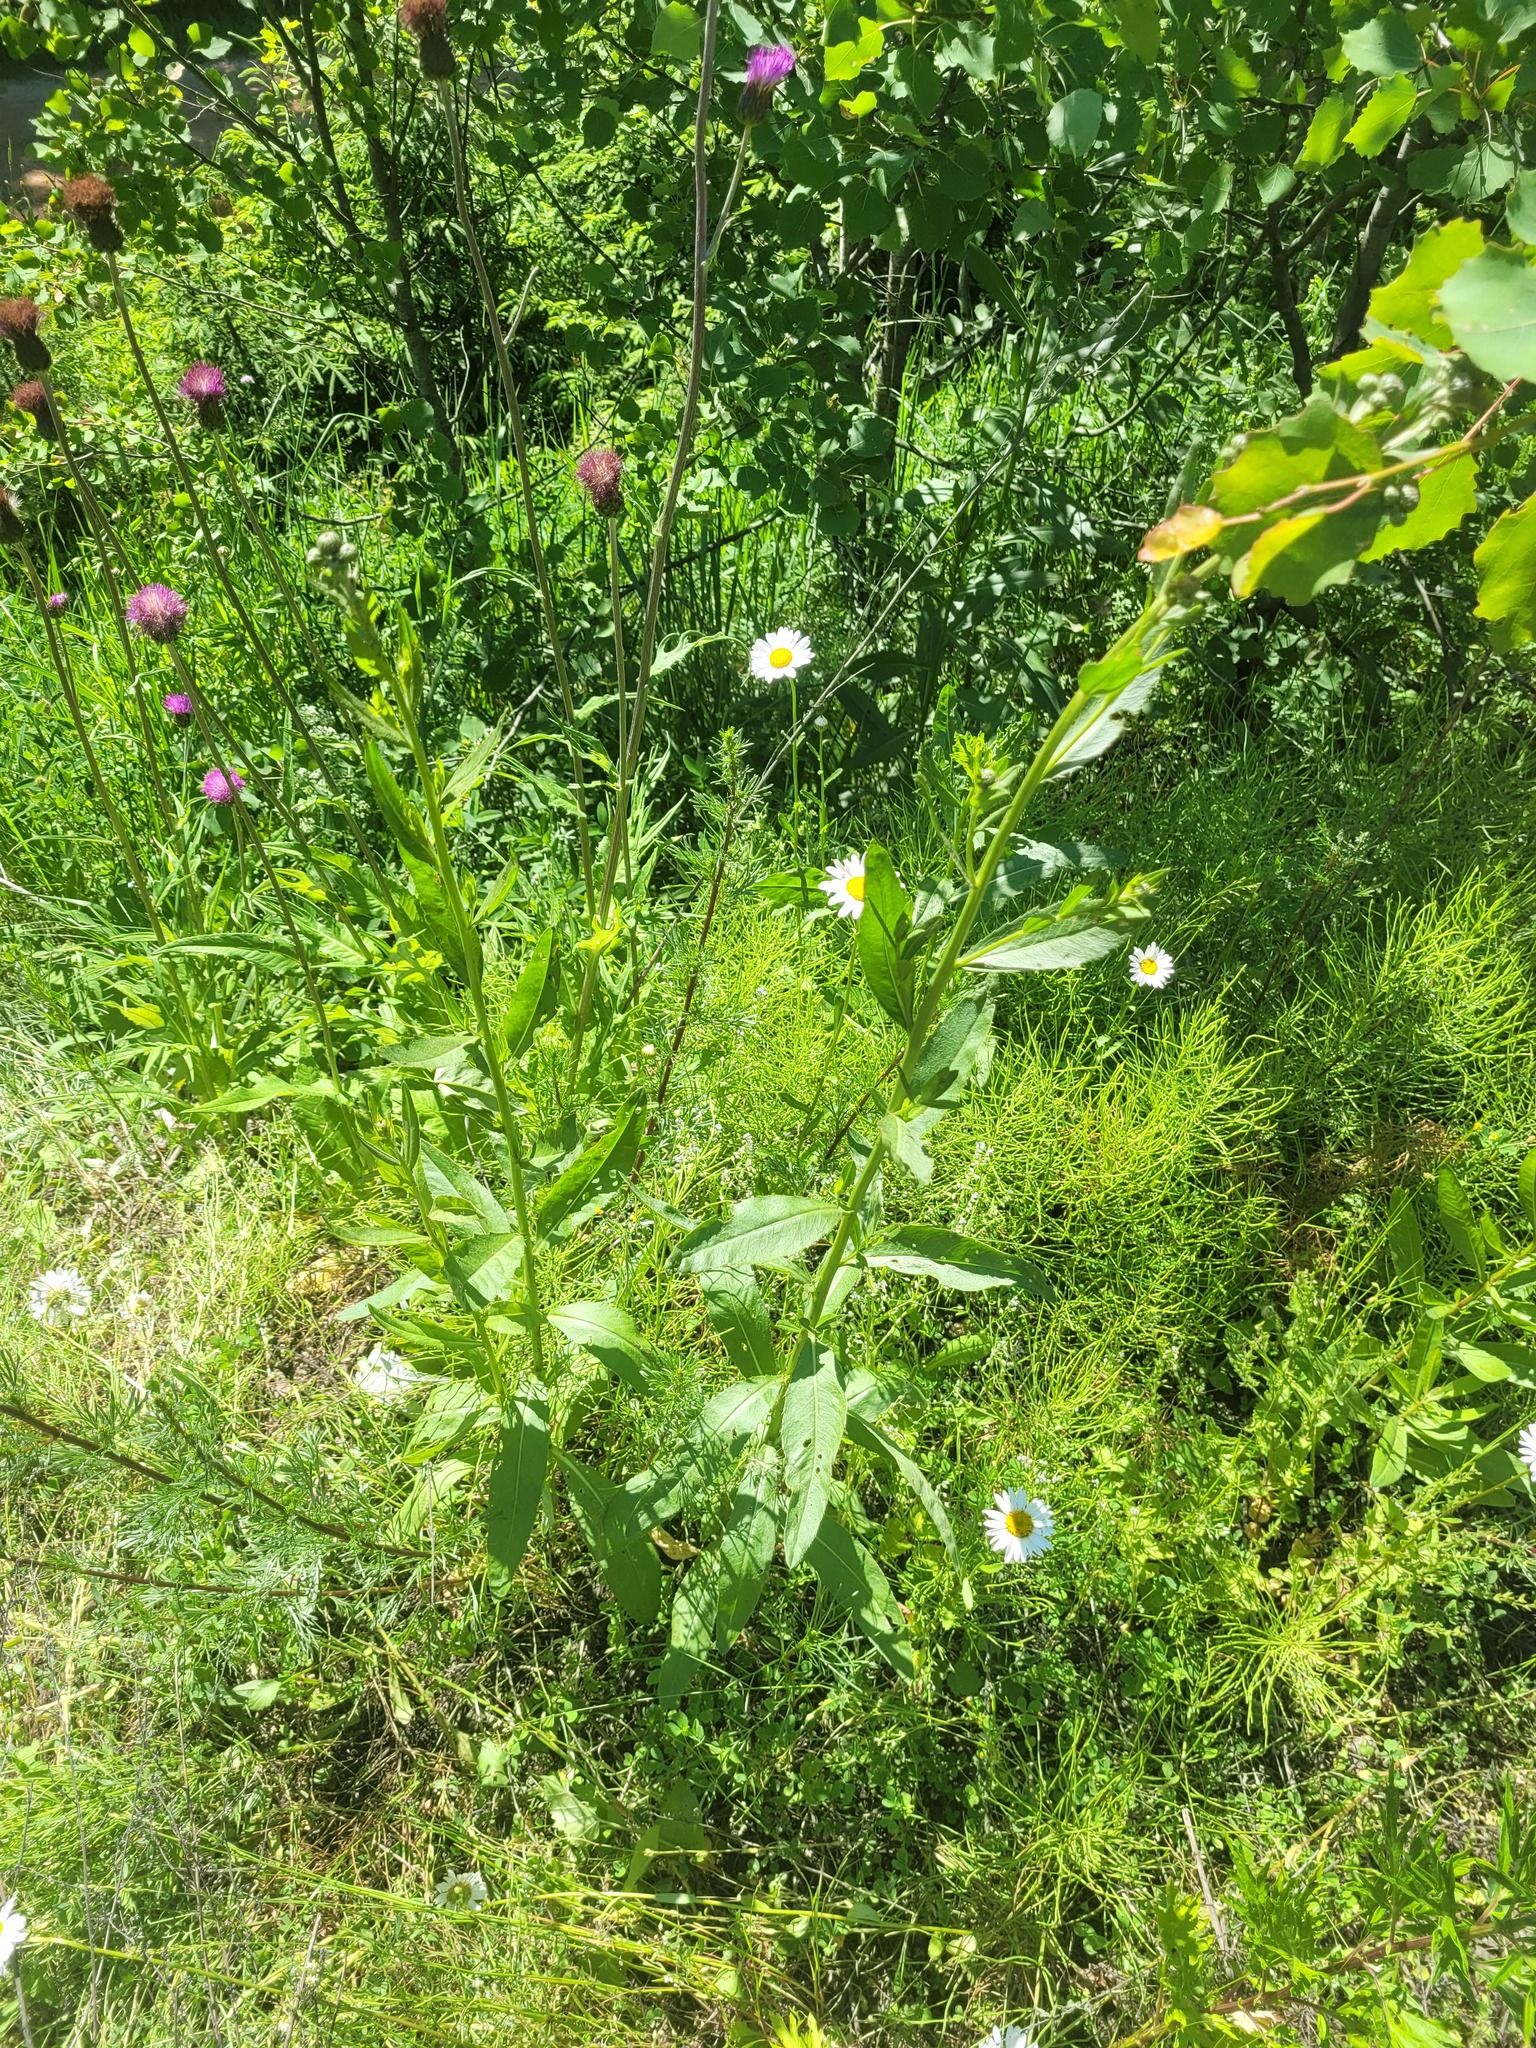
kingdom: Plantae
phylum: Tracheophyta
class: Magnoliopsida
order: Asterales
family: Asteraceae
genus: Cirsium
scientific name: Cirsium arvense
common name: Creeping thistle
